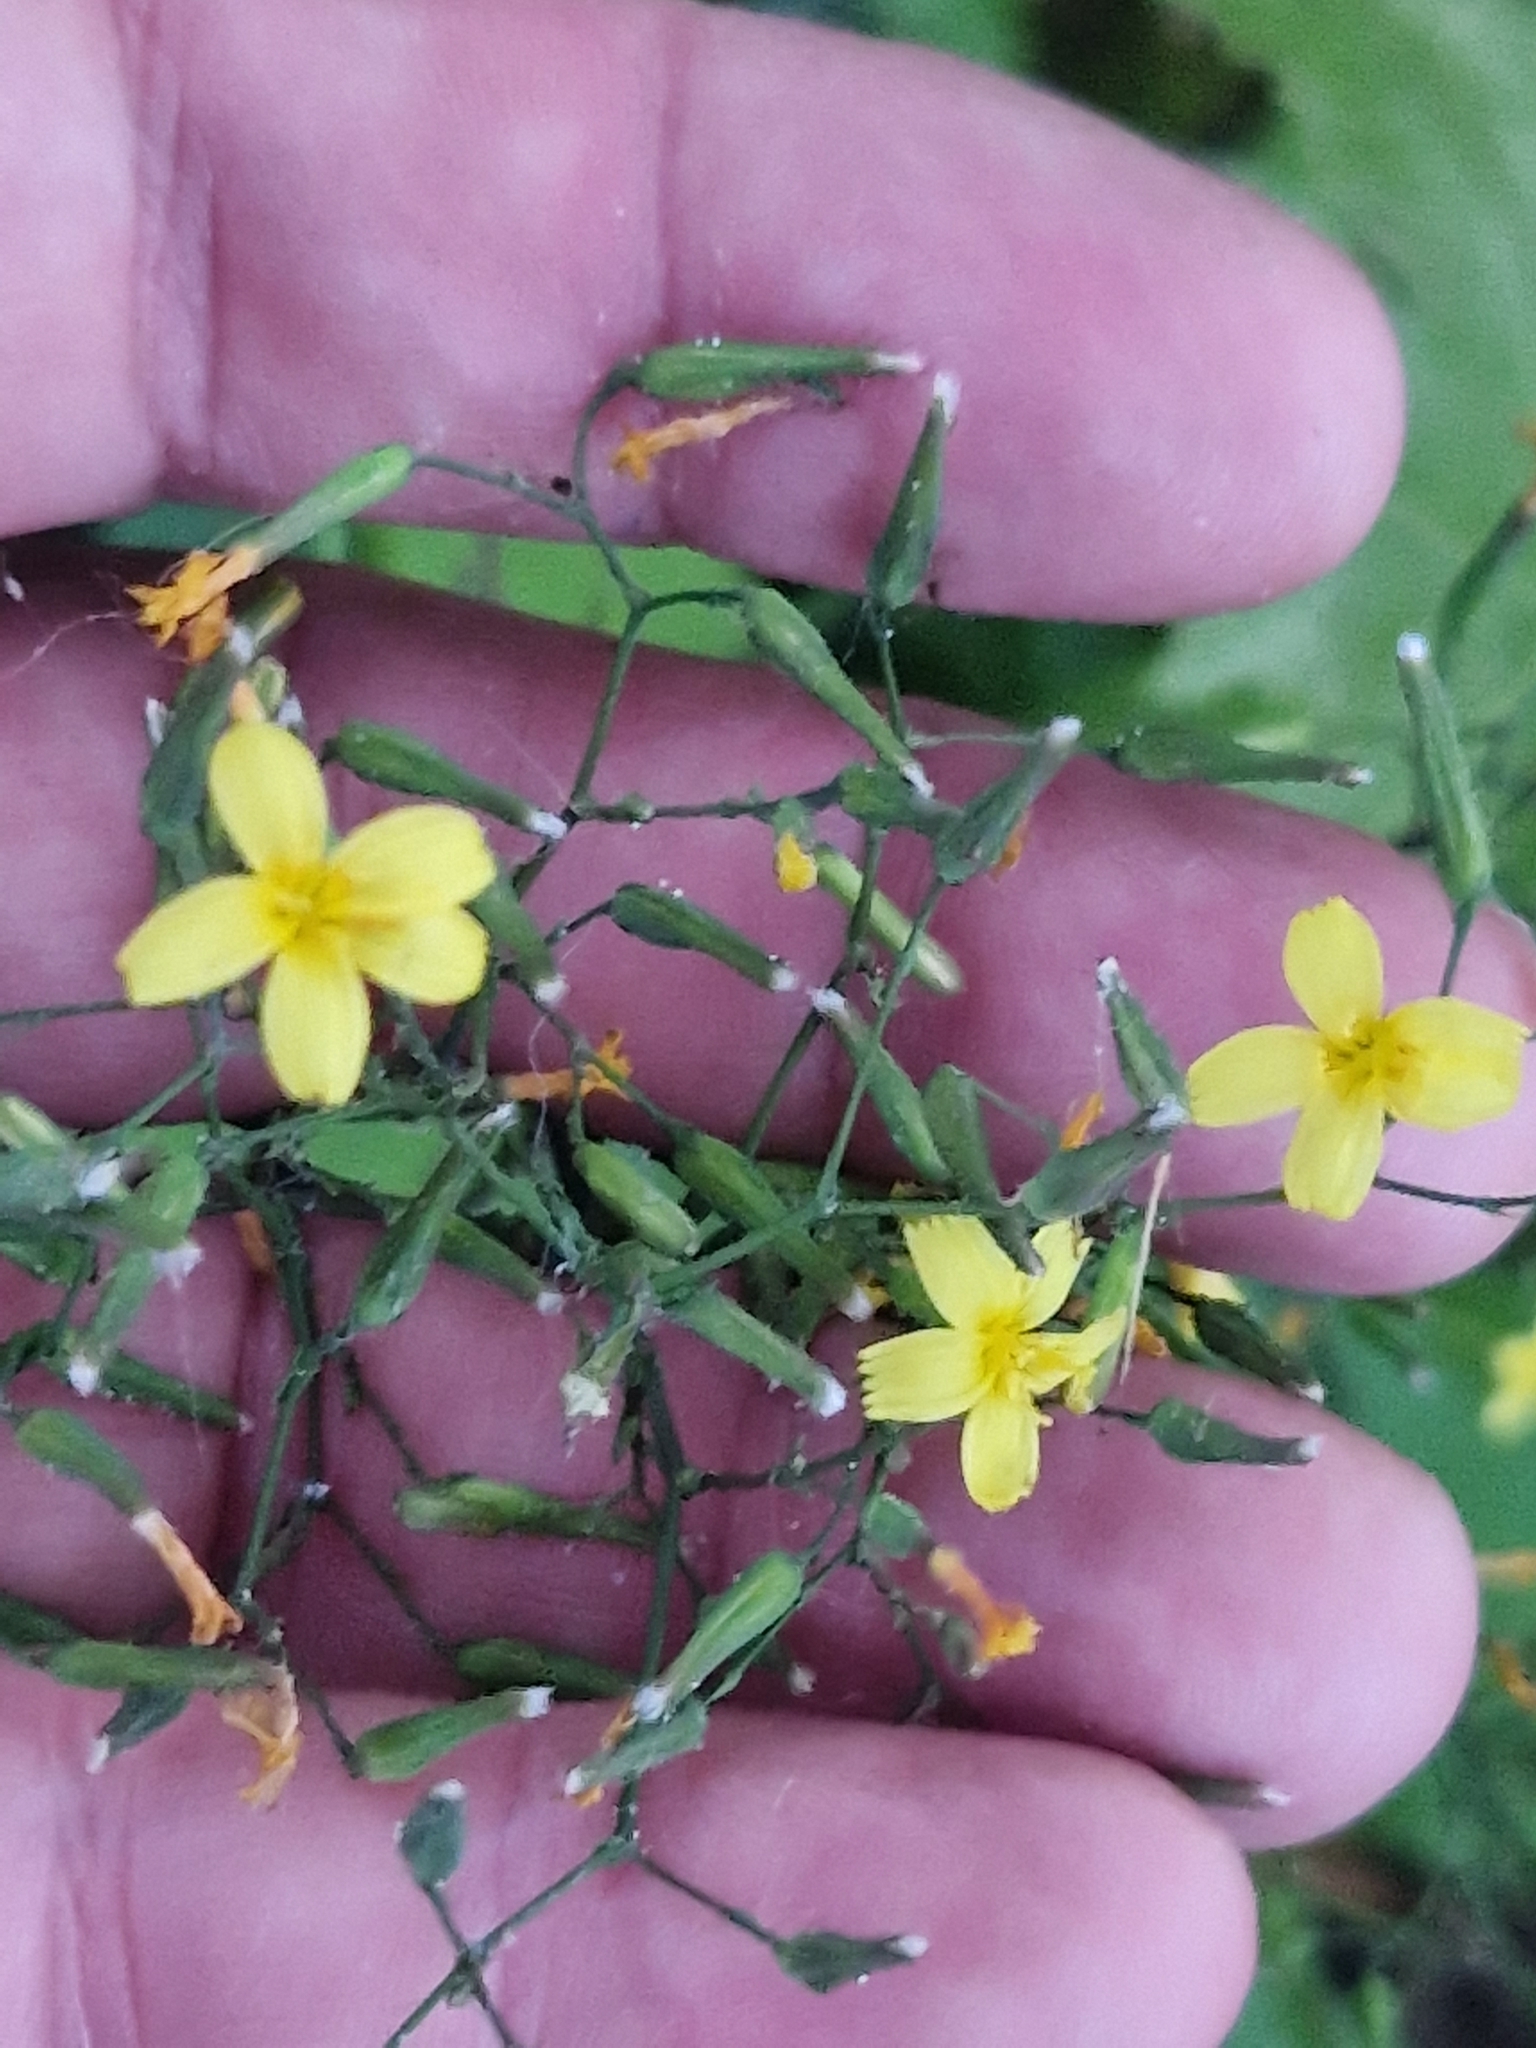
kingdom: Plantae
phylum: Tracheophyta
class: Magnoliopsida
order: Asterales
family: Asteraceae
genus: Mycelis
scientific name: Mycelis muralis
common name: Wall lettuce
